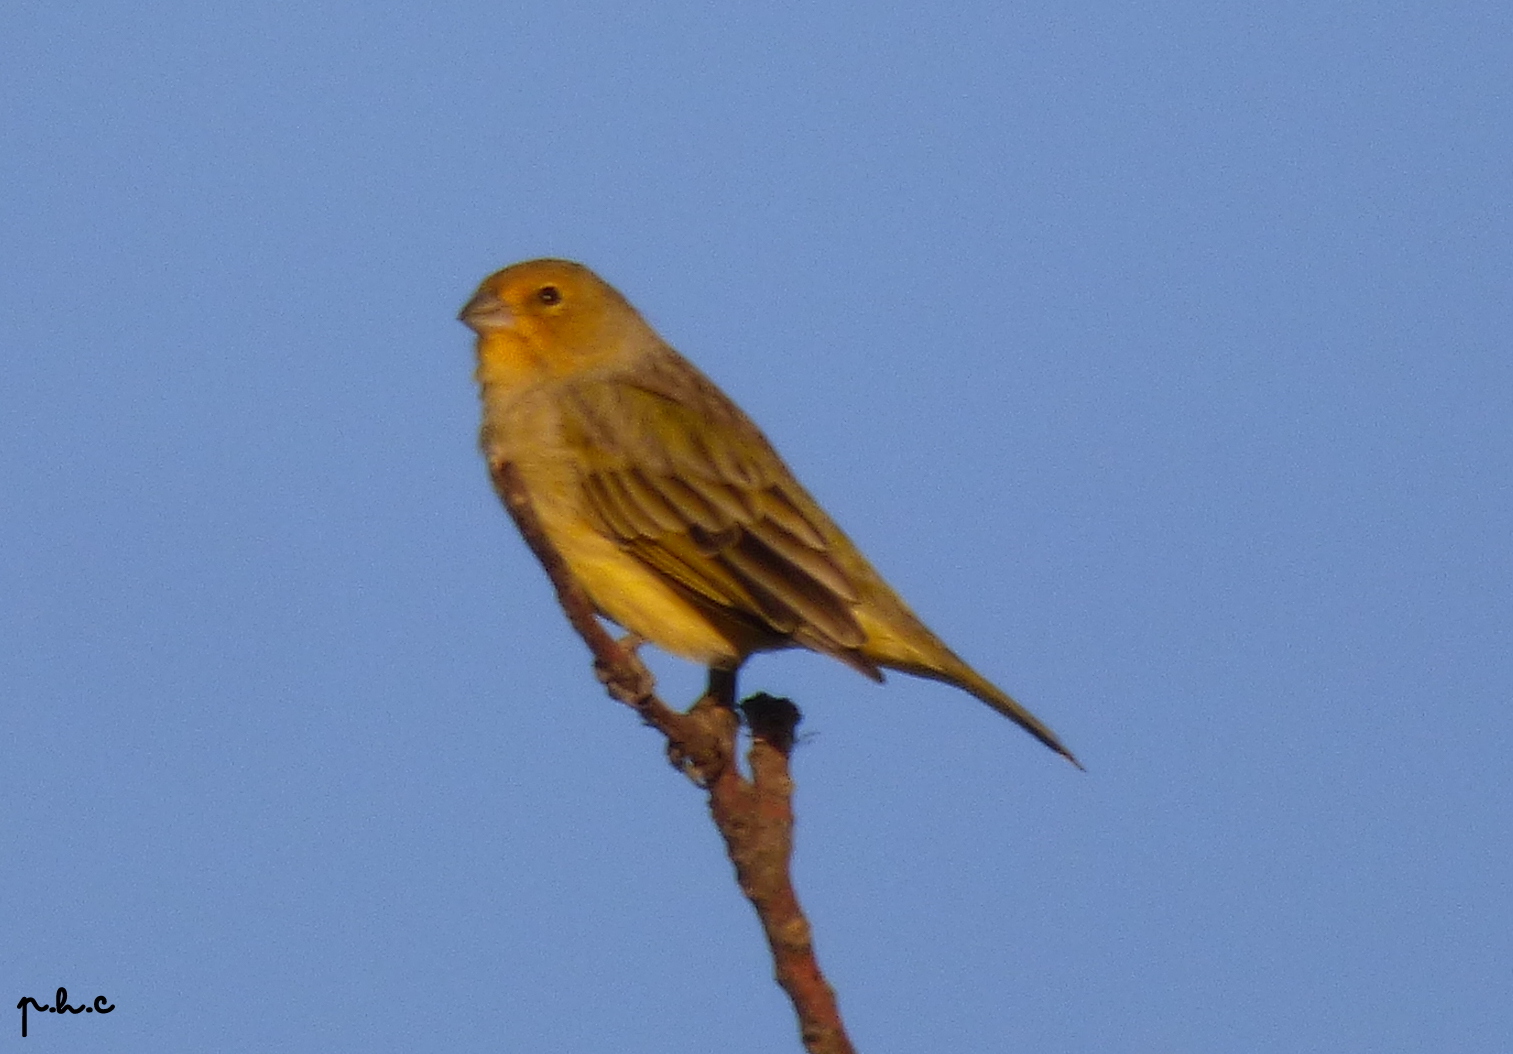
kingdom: Animalia
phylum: Chordata
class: Aves
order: Passeriformes
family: Thraupidae
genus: Sicalis
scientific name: Sicalis flaveola
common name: Saffron finch
